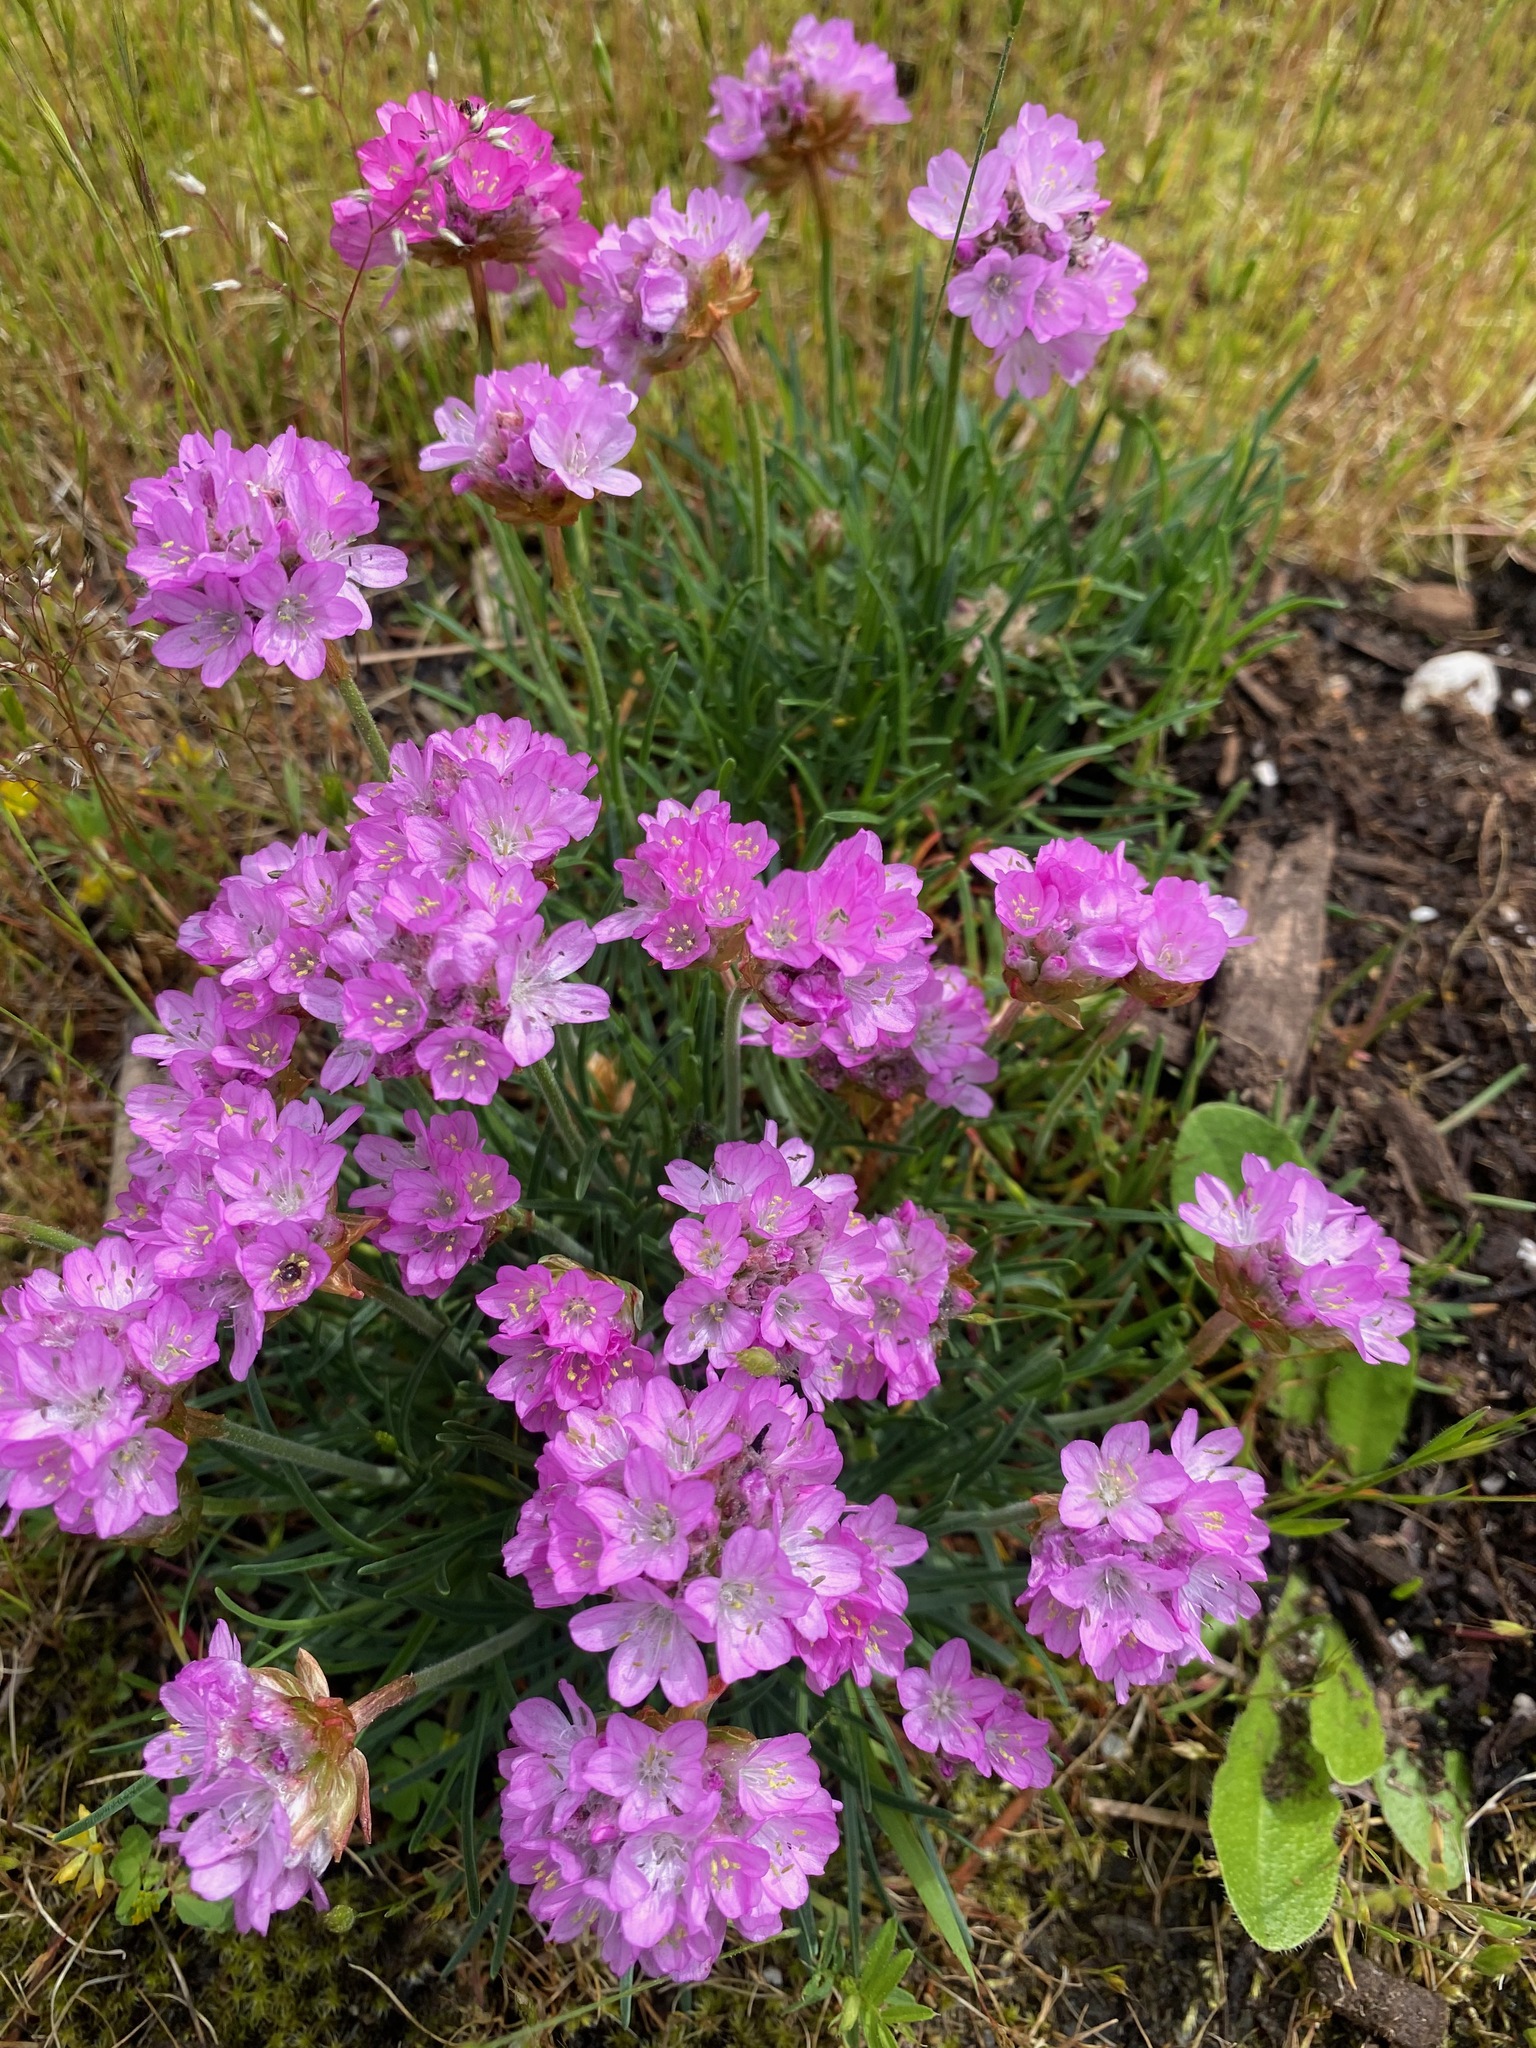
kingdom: Plantae
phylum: Tracheophyta
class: Magnoliopsida
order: Caryophyllales
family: Plumbaginaceae
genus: Armeria
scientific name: Armeria maritima
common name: Thrift
